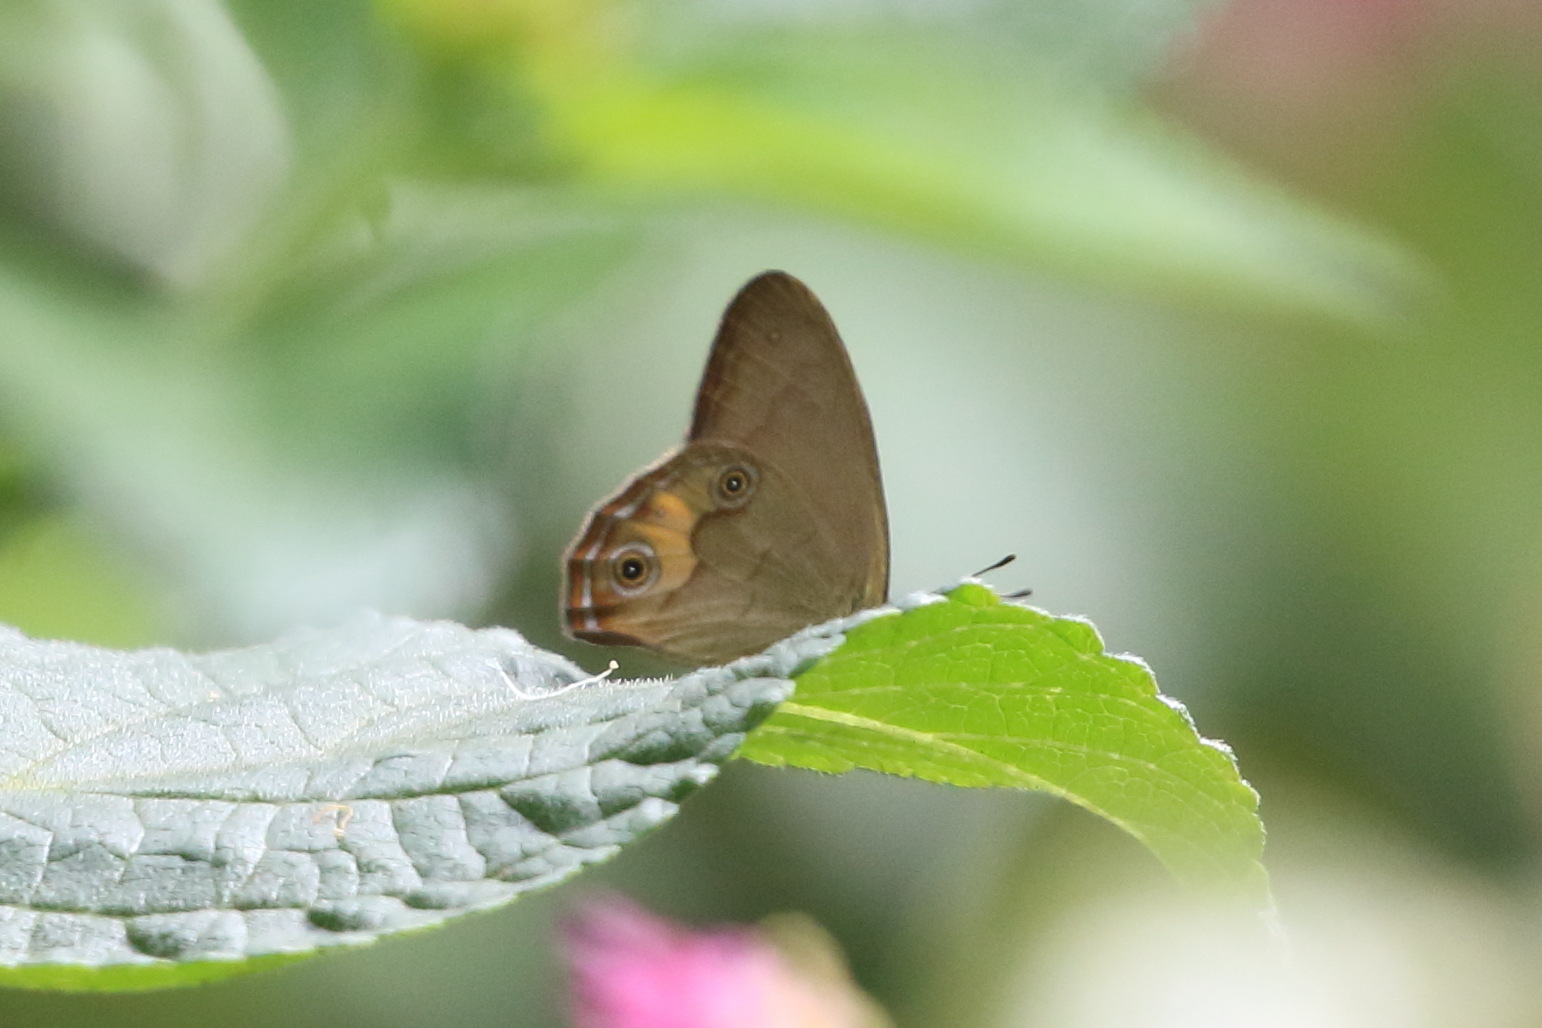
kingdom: Animalia
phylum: Arthropoda
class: Insecta
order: Lepidoptera
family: Nymphalidae
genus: Hypocysta
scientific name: Hypocysta metirius
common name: Brown ringlet
